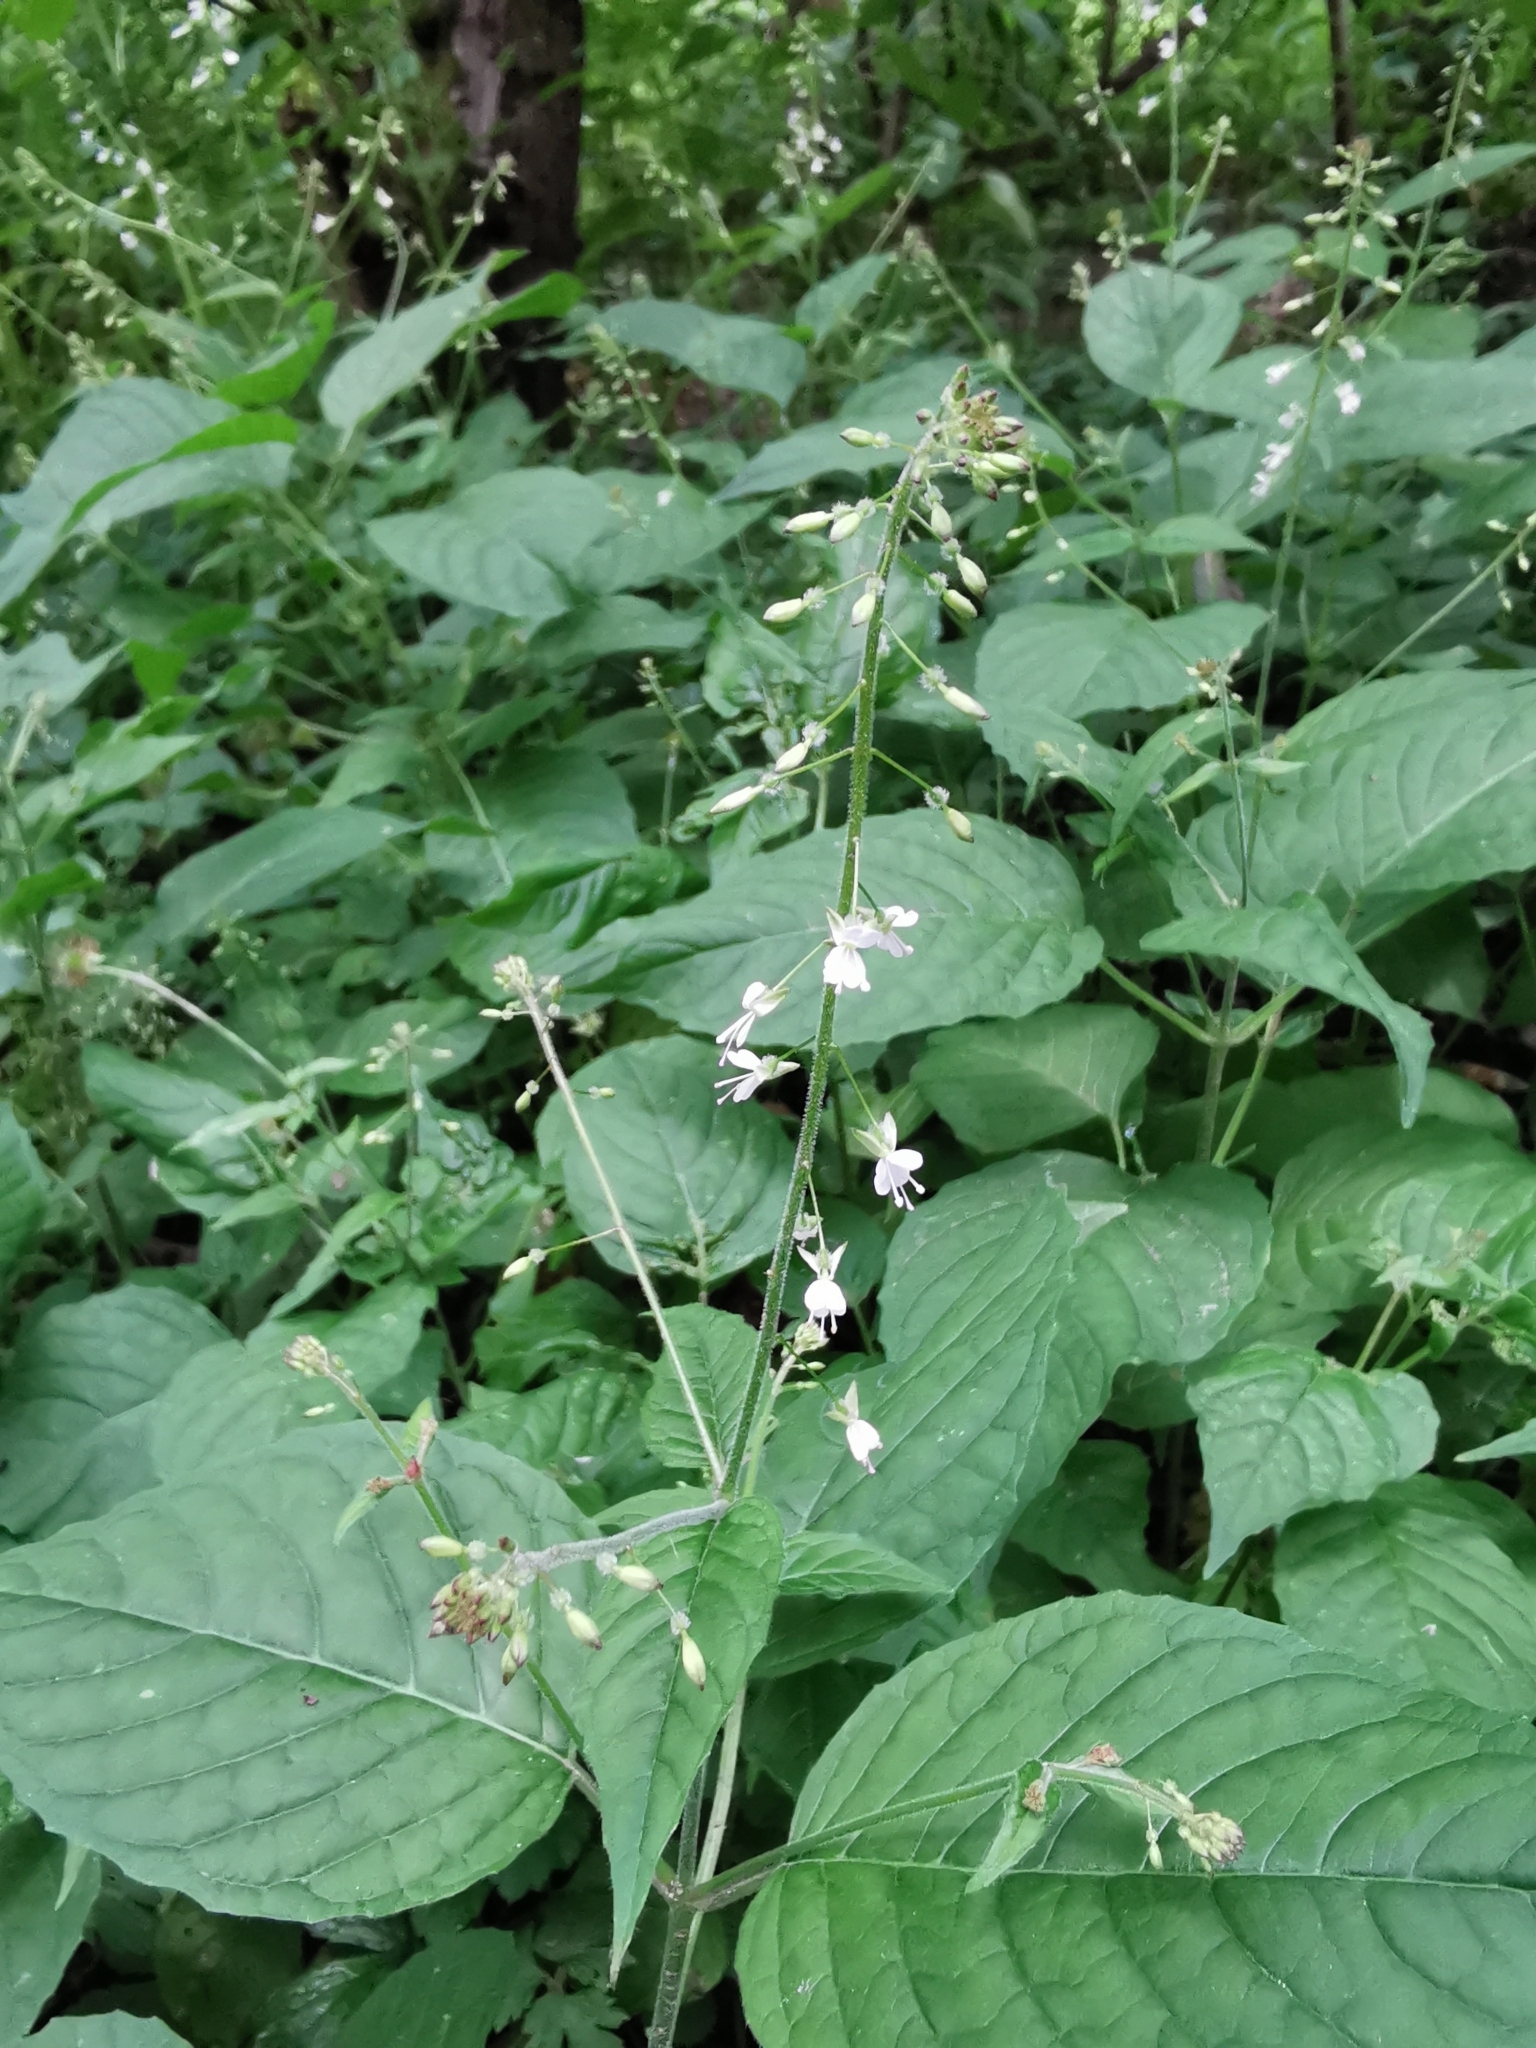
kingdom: Plantae
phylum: Tracheophyta
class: Magnoliopsida
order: Myrtales
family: Onagraceae
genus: Circaea
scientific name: Circaea lutetiana
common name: Enchanter's-nightshade
